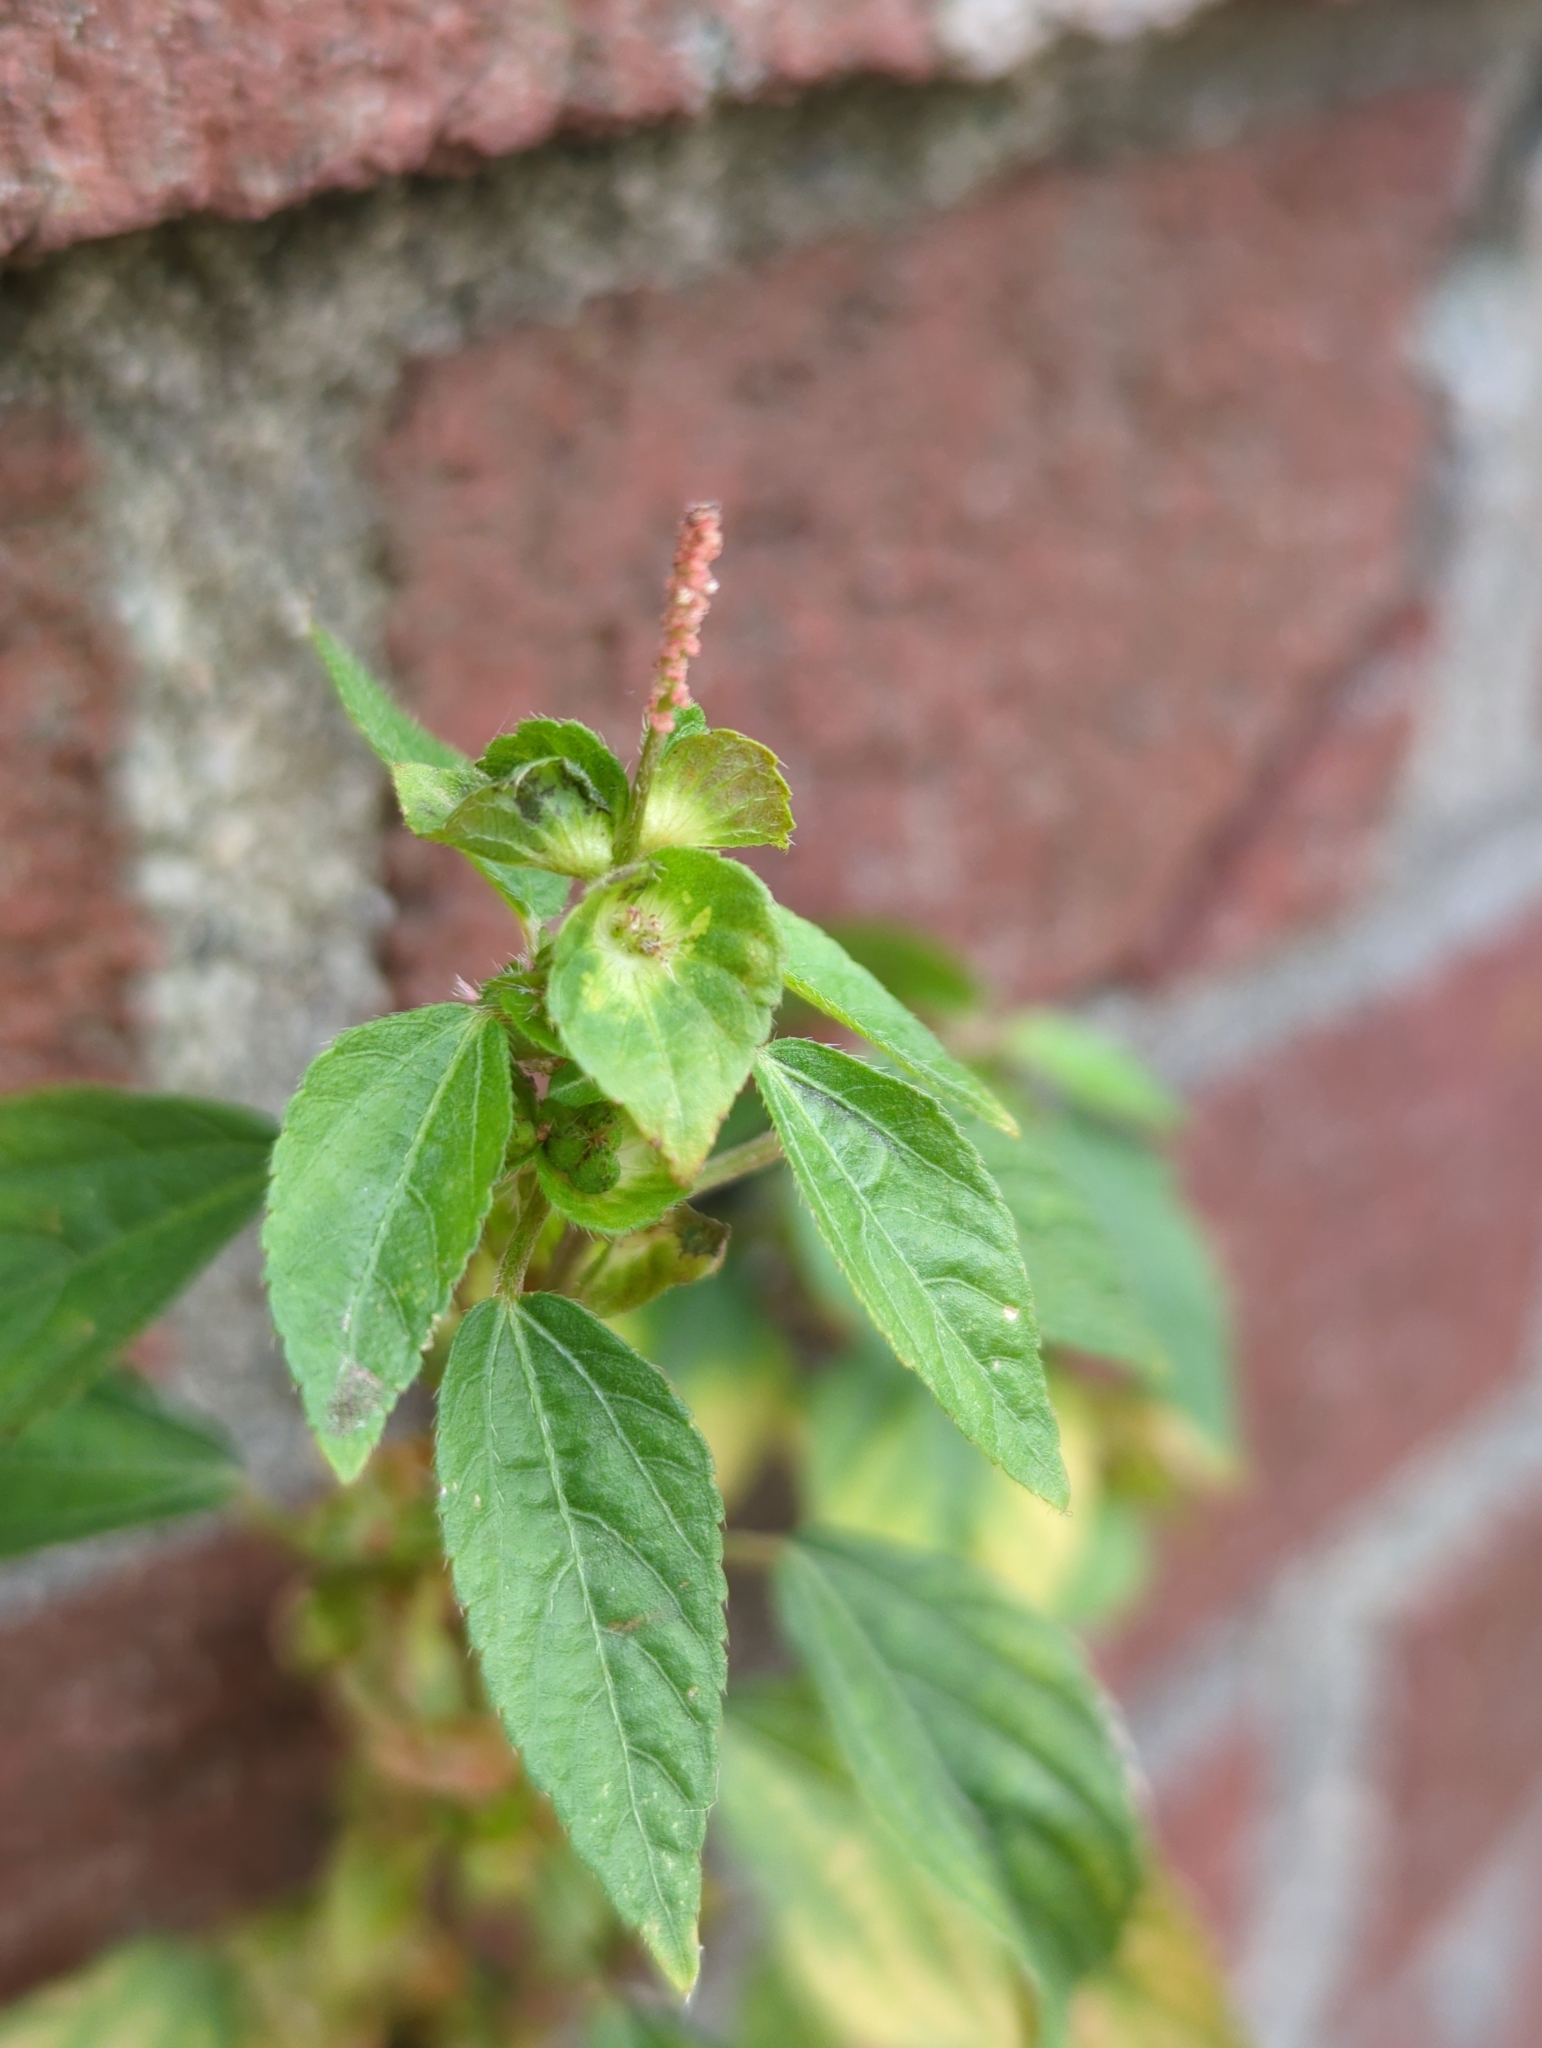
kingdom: Plantae
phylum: Tracheophyta
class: Magnoliopsida
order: Malpighiales
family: Euphorbiaceae
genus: Acalypha
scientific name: Acalypha australis
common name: Asian copperleaf
